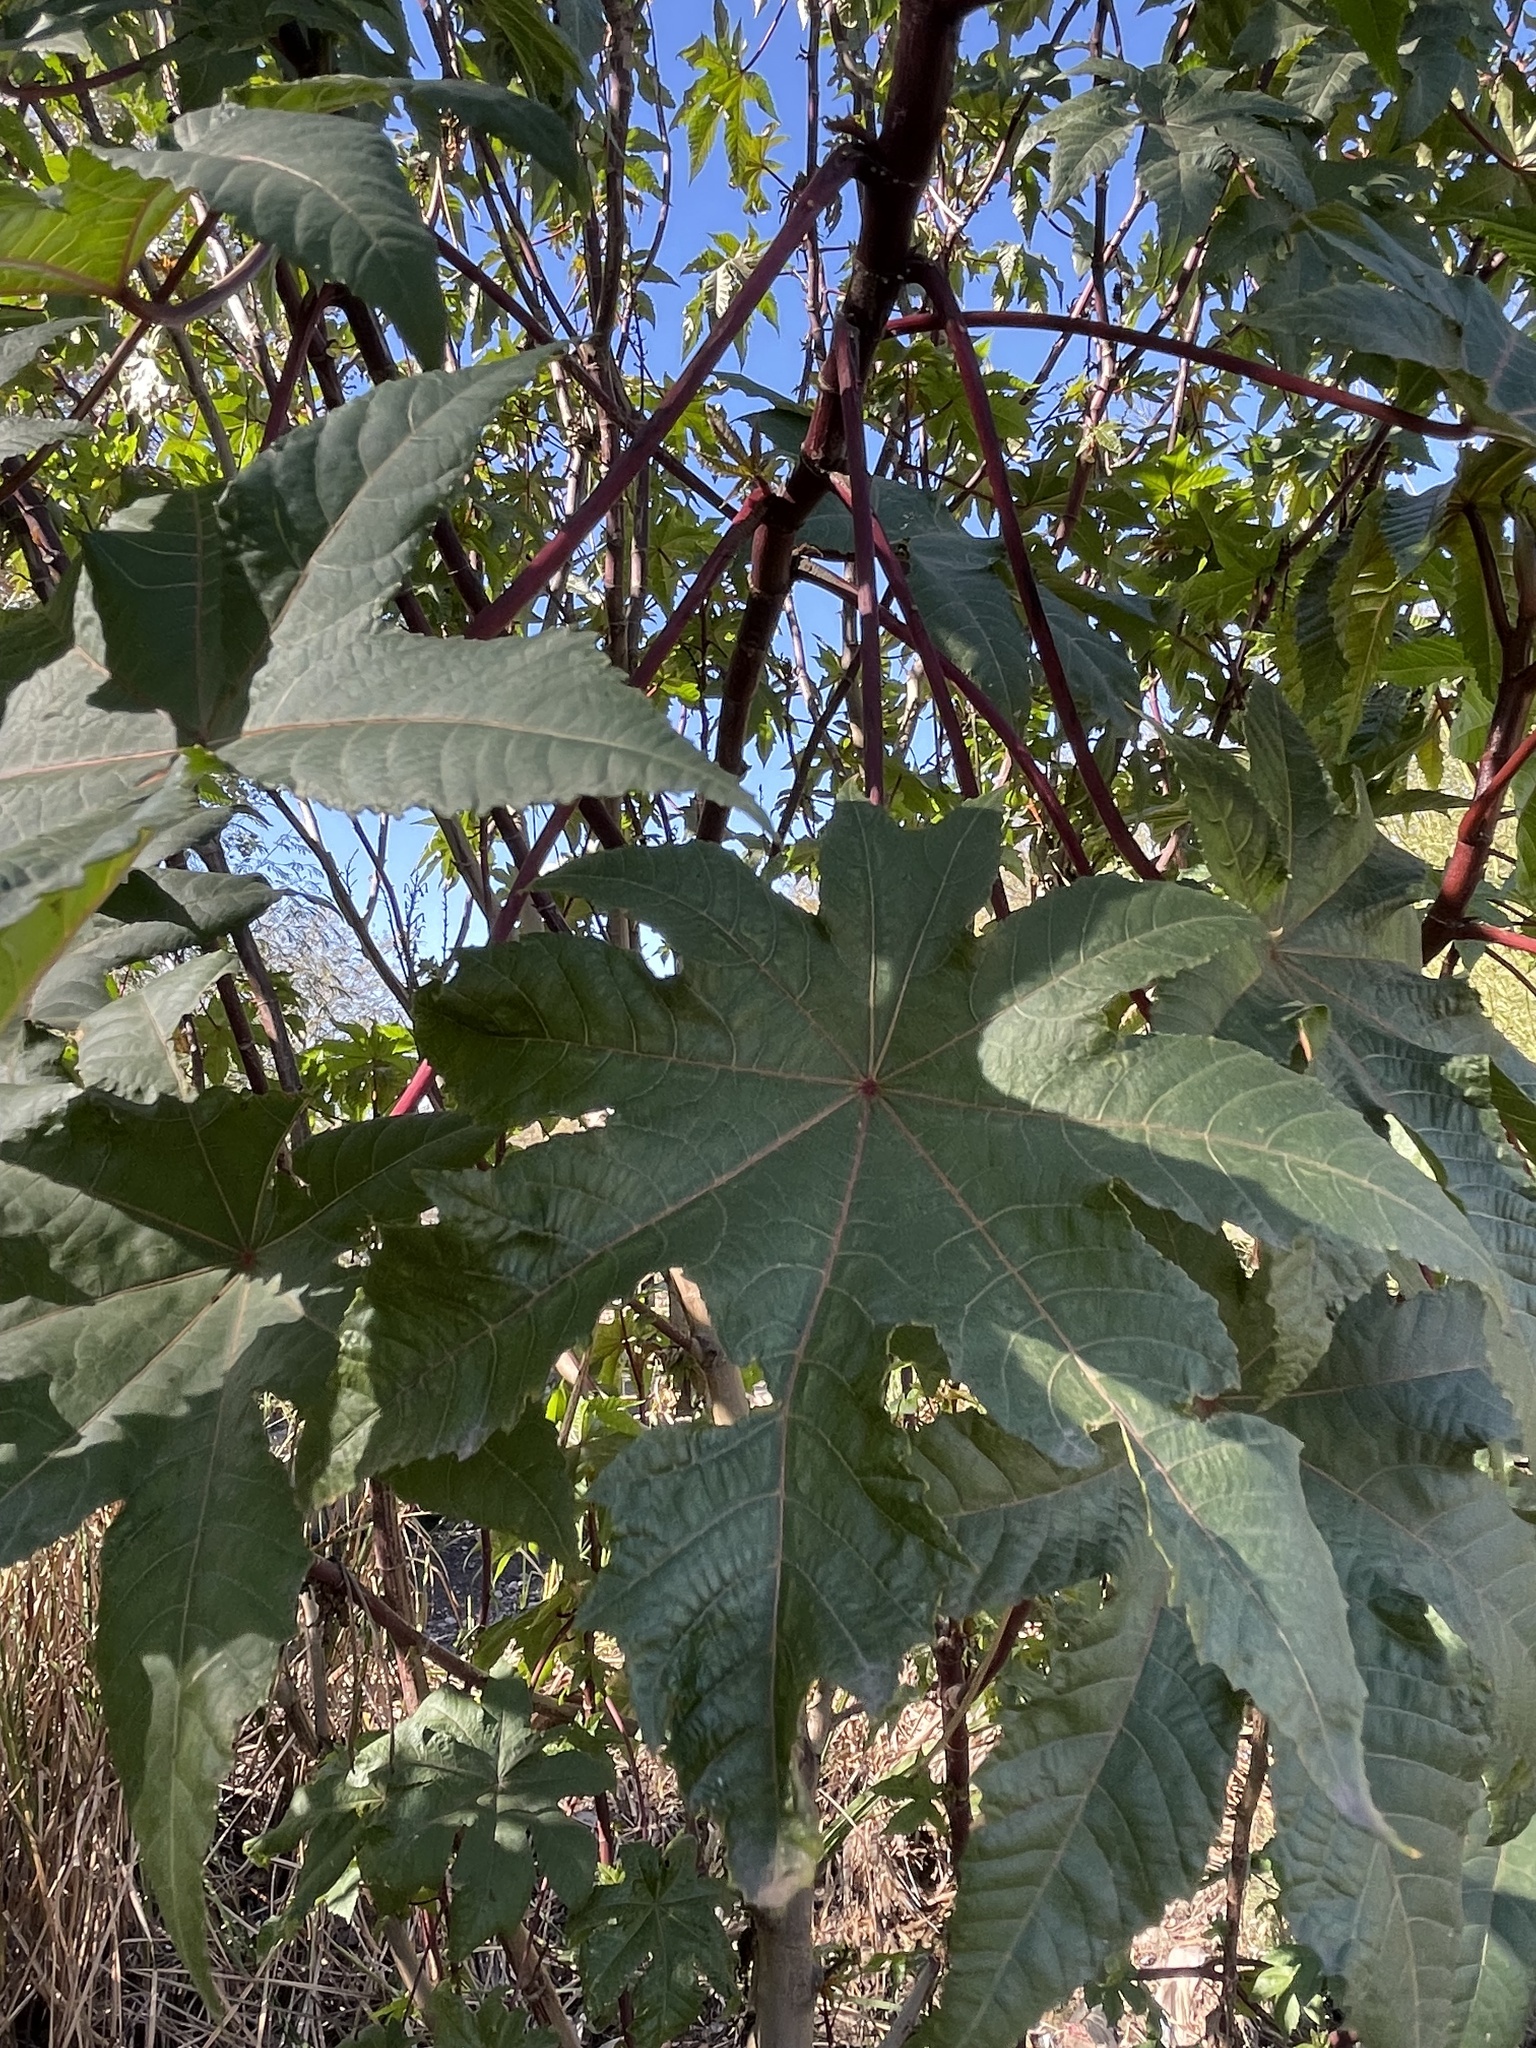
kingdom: Plantae
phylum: Tracheophyta
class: Magnoliopsida
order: Malpighiales
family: Euphorbiaceae
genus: Ricinus
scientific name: Ricinus communis
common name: Castor-oil-plant
